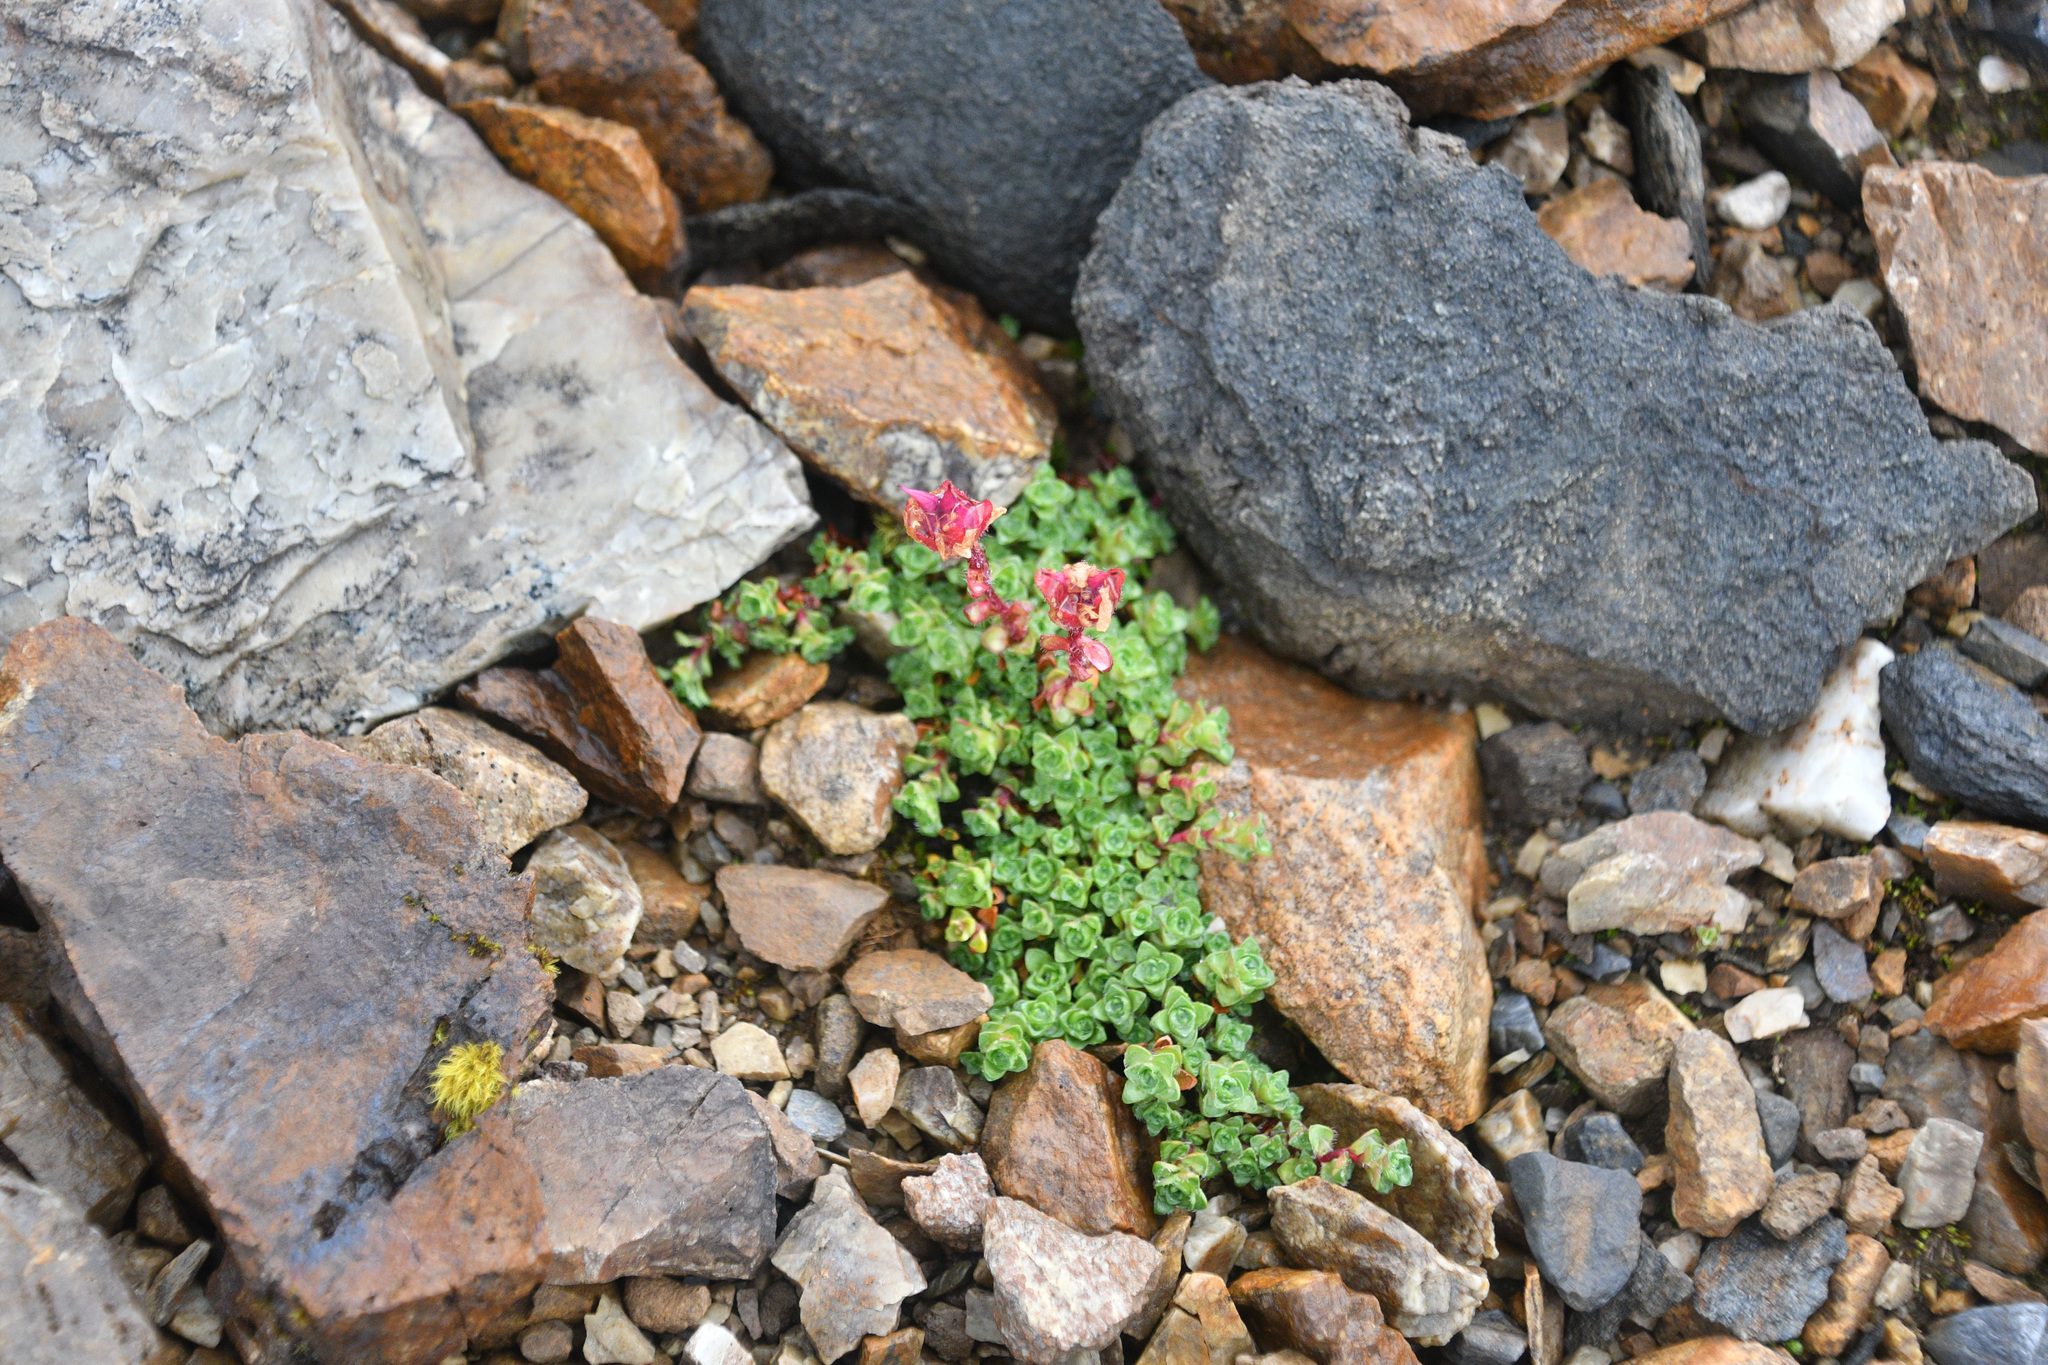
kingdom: Plantae
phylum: Tracheophyta
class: Magnoliopsida
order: Saxifragales
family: Saxifragaceae
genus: Saxifraga
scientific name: Saxifraga oppositifolia
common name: Purple saxifrage
